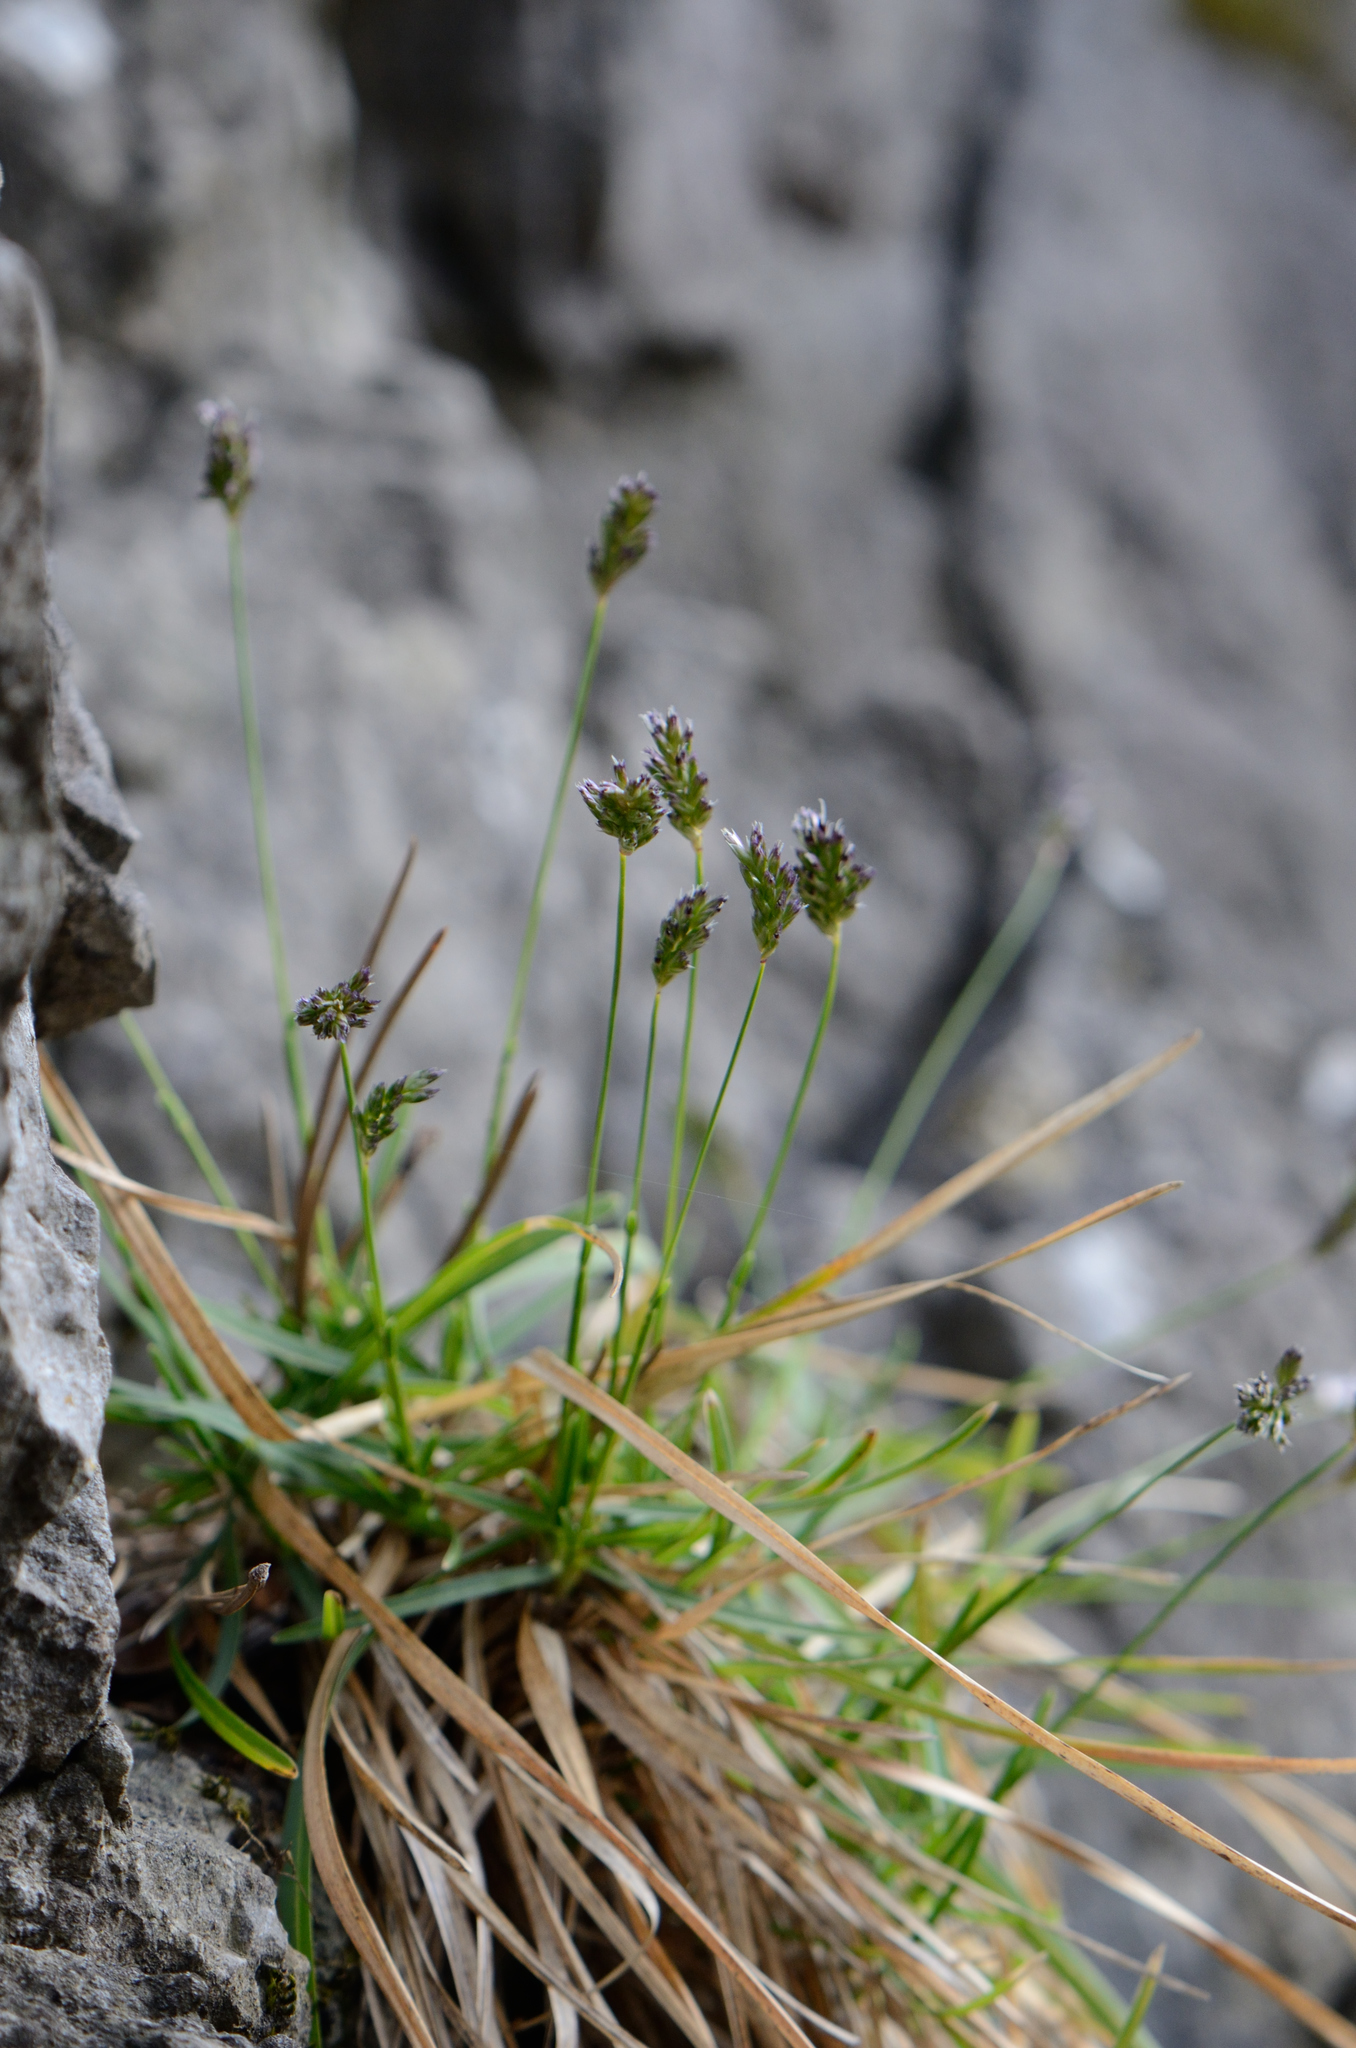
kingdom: Plantae
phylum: Tracheophyta
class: Liliopsida
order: Poales
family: Poaceae
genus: Sesleria
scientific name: Sesleria albicans
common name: Blue moor-grass
